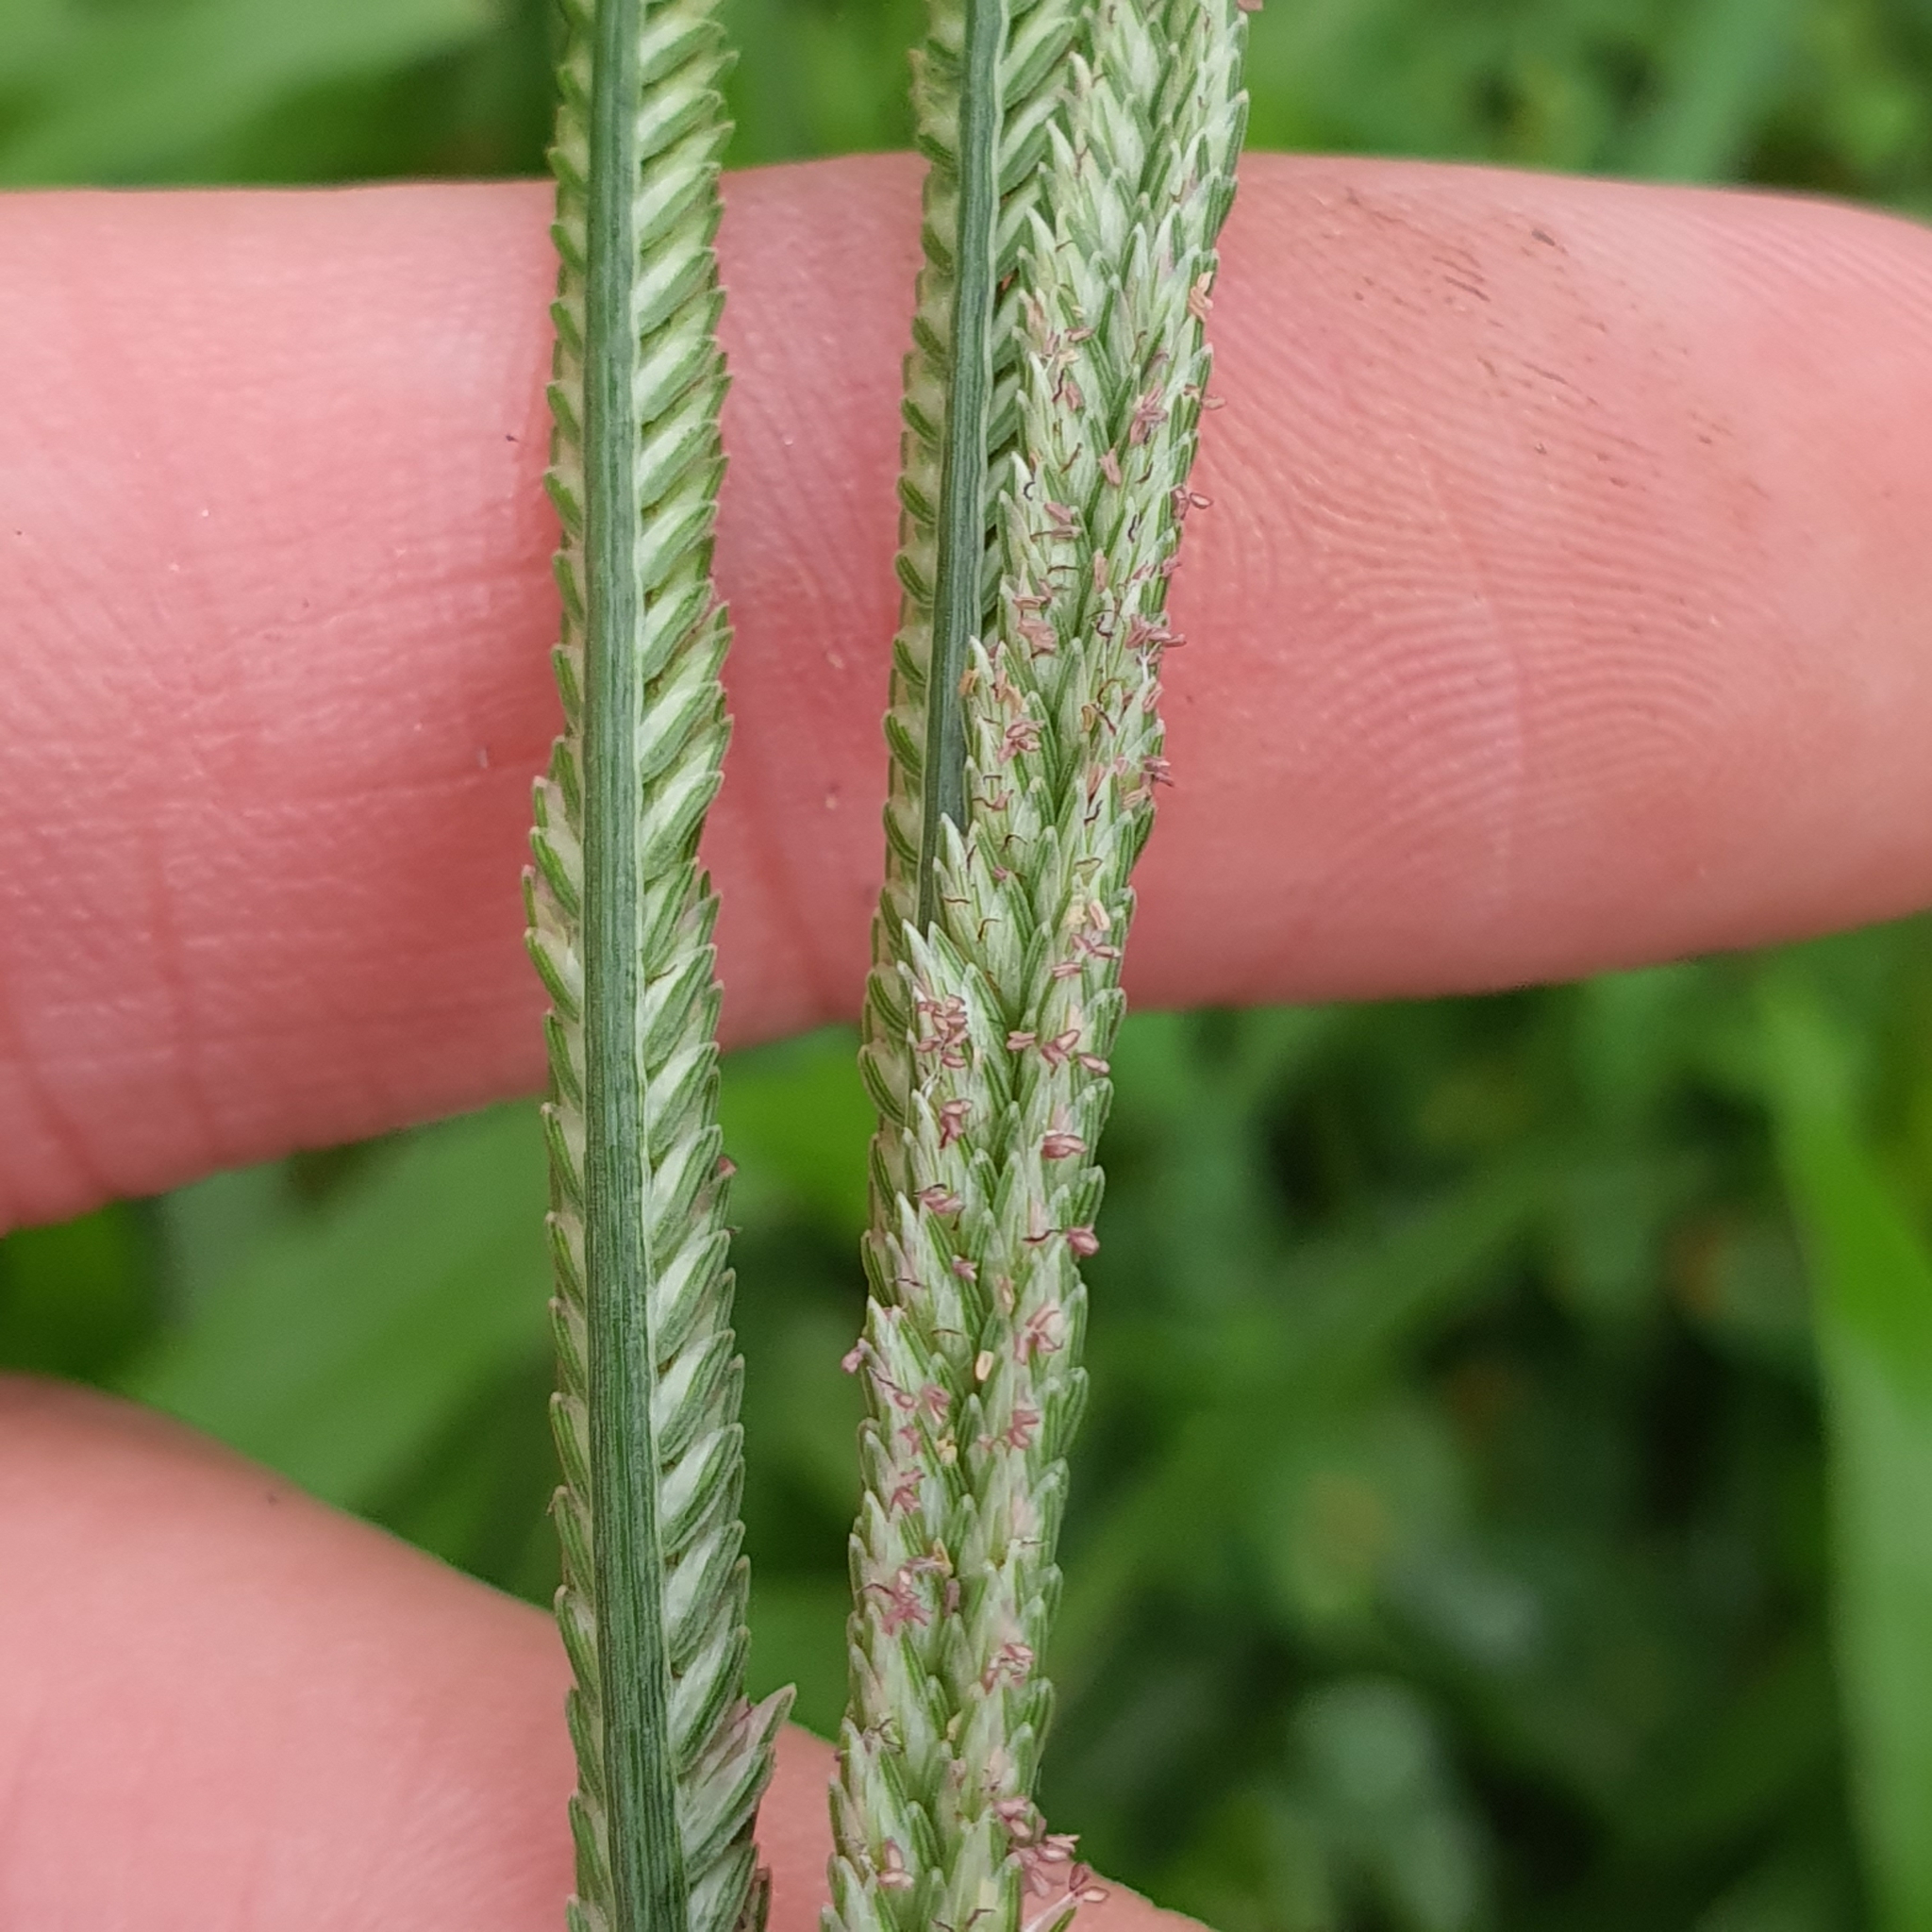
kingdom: Plantae
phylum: Tracheophyta
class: Liliopsida
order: Poales
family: Poaceae
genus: Eleusine
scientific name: Eleusine indica
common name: Yard-grass
